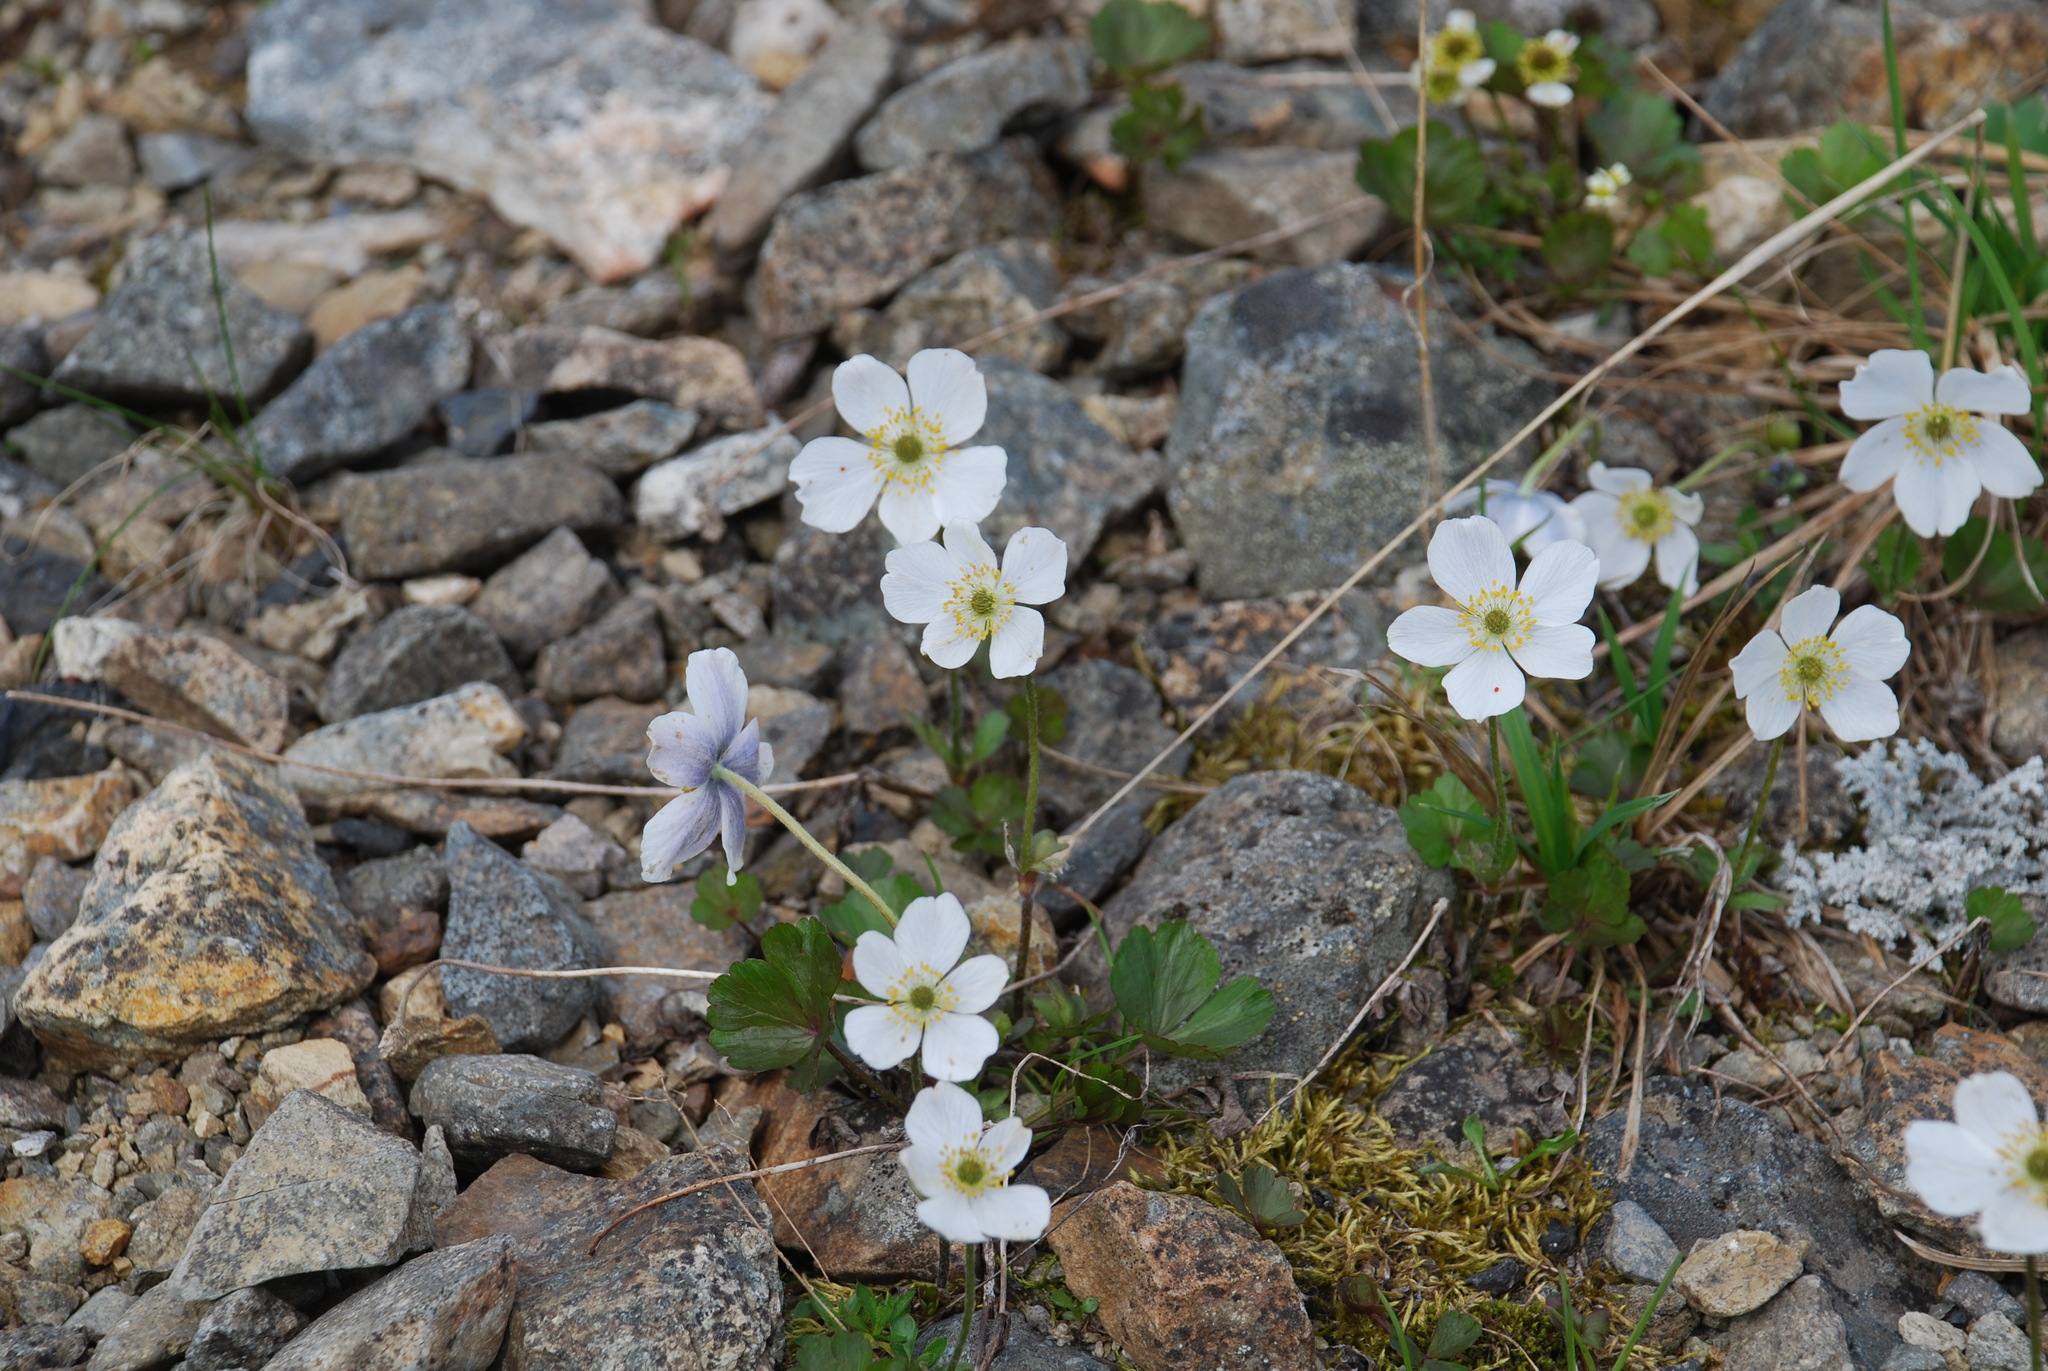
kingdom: Plantae
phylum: Tracheophyta
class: Magnoliopsida
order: Ranunculales
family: Ranunculaceae
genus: Anemone
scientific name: Anemone parviflora
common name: Northern anemone
